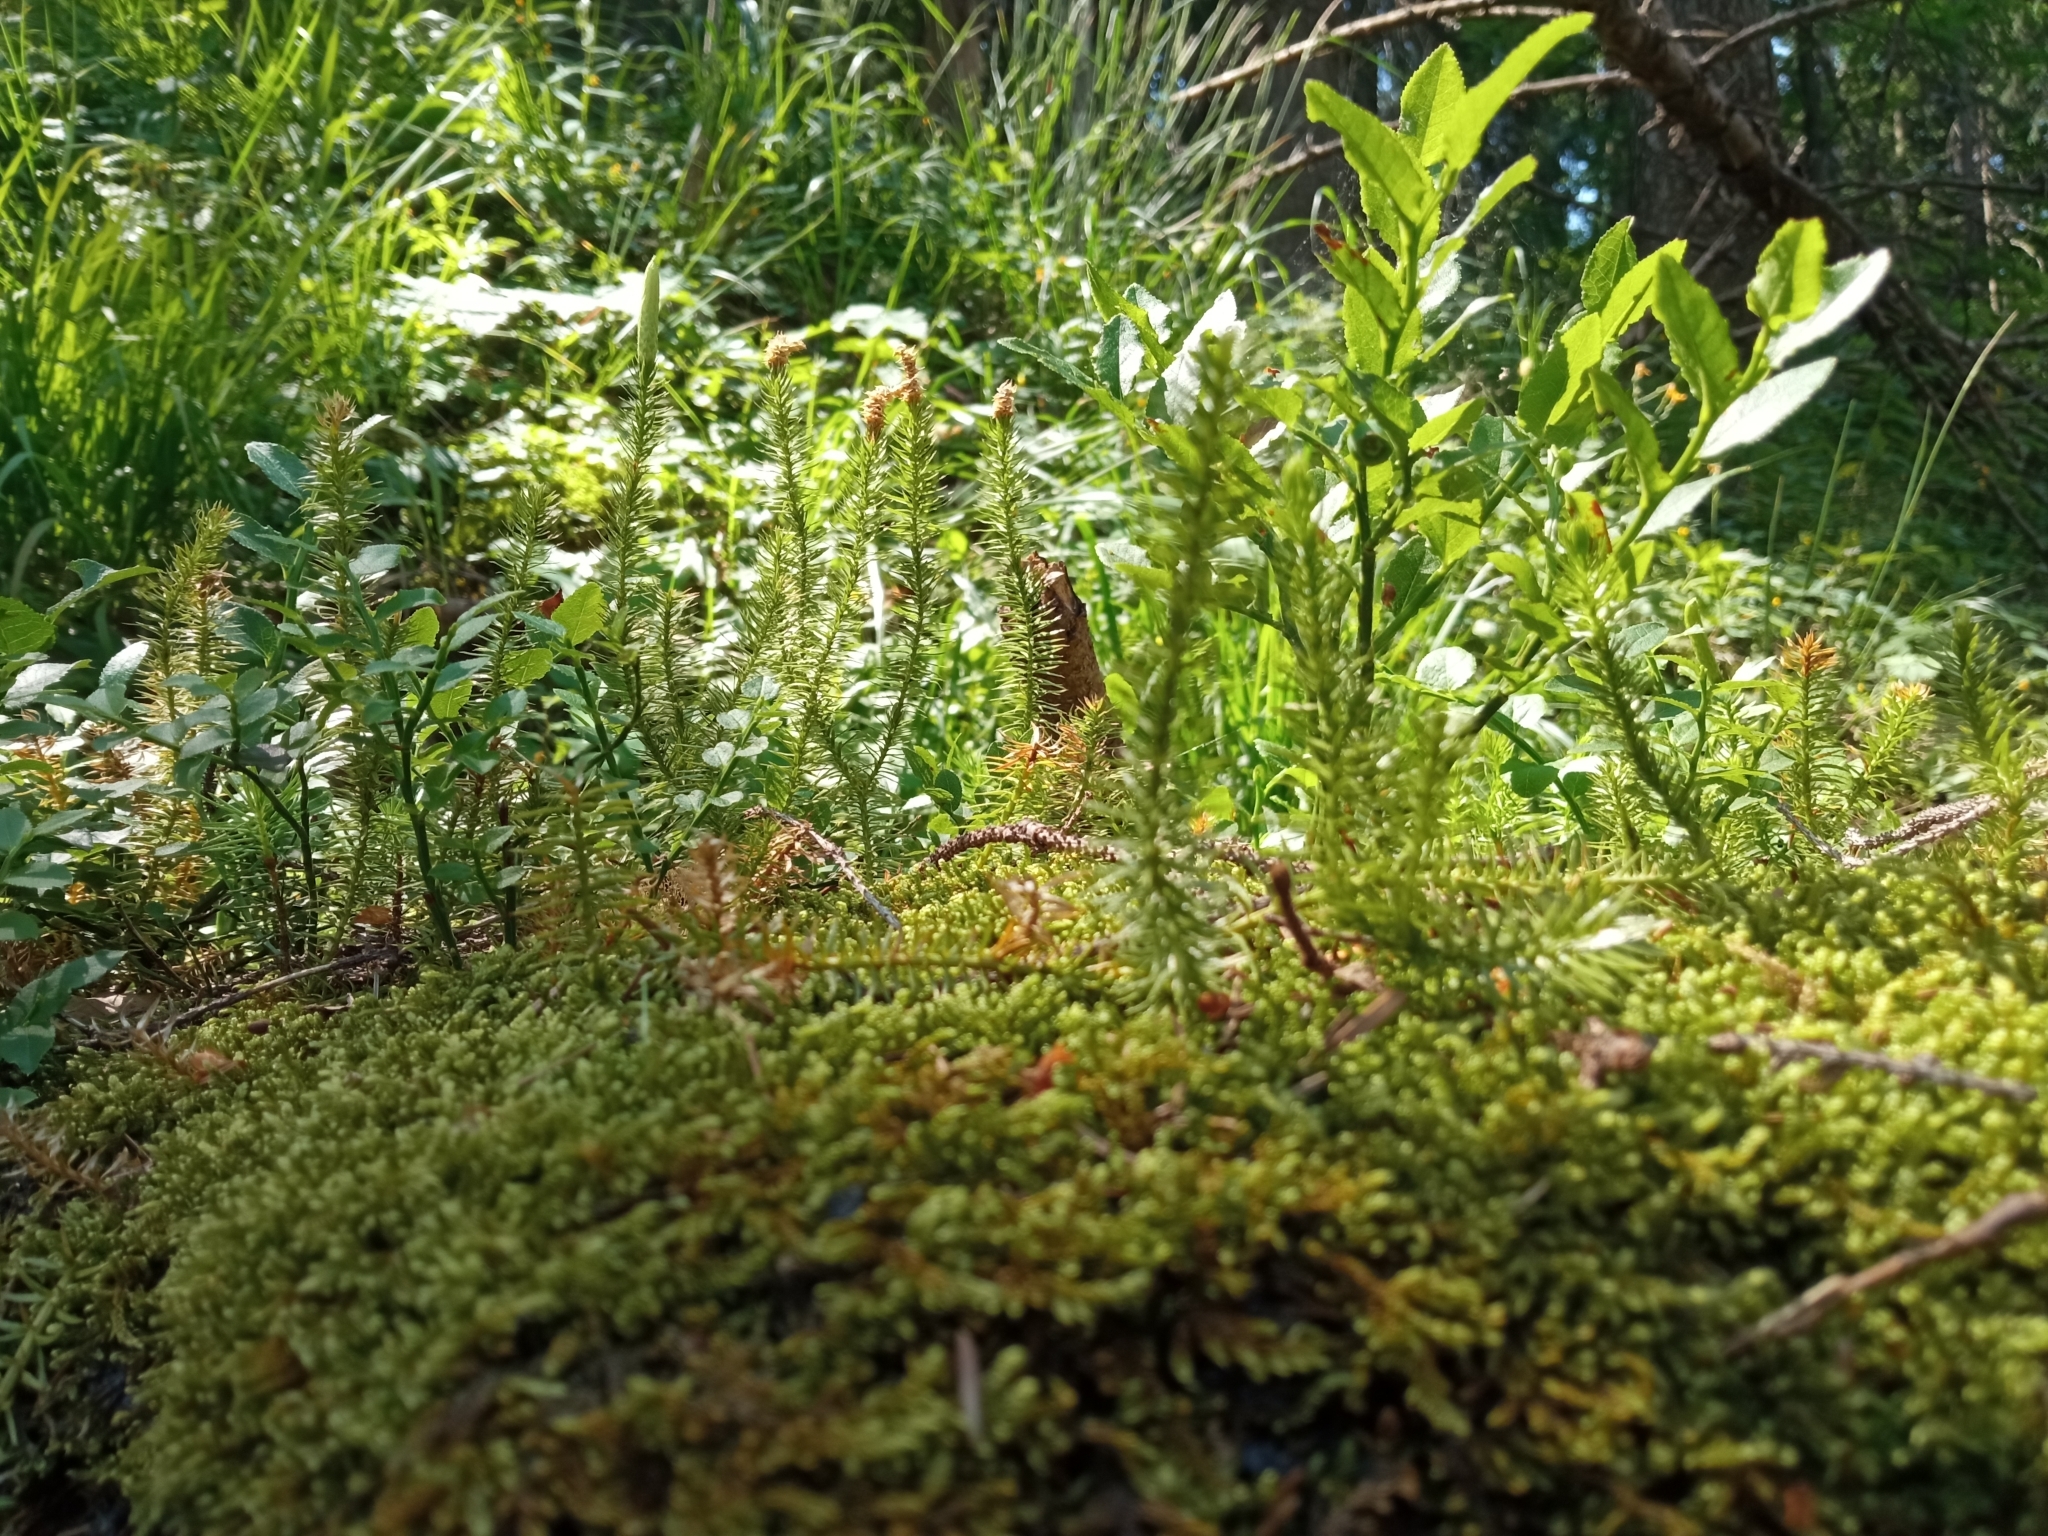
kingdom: Plantae
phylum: Tracheophyta
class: Lycopodiopsida
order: Lycopodiales
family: Lycopodiaceae
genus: Spinulum
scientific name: Spinulum annotinum
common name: Interrupted club-moss
